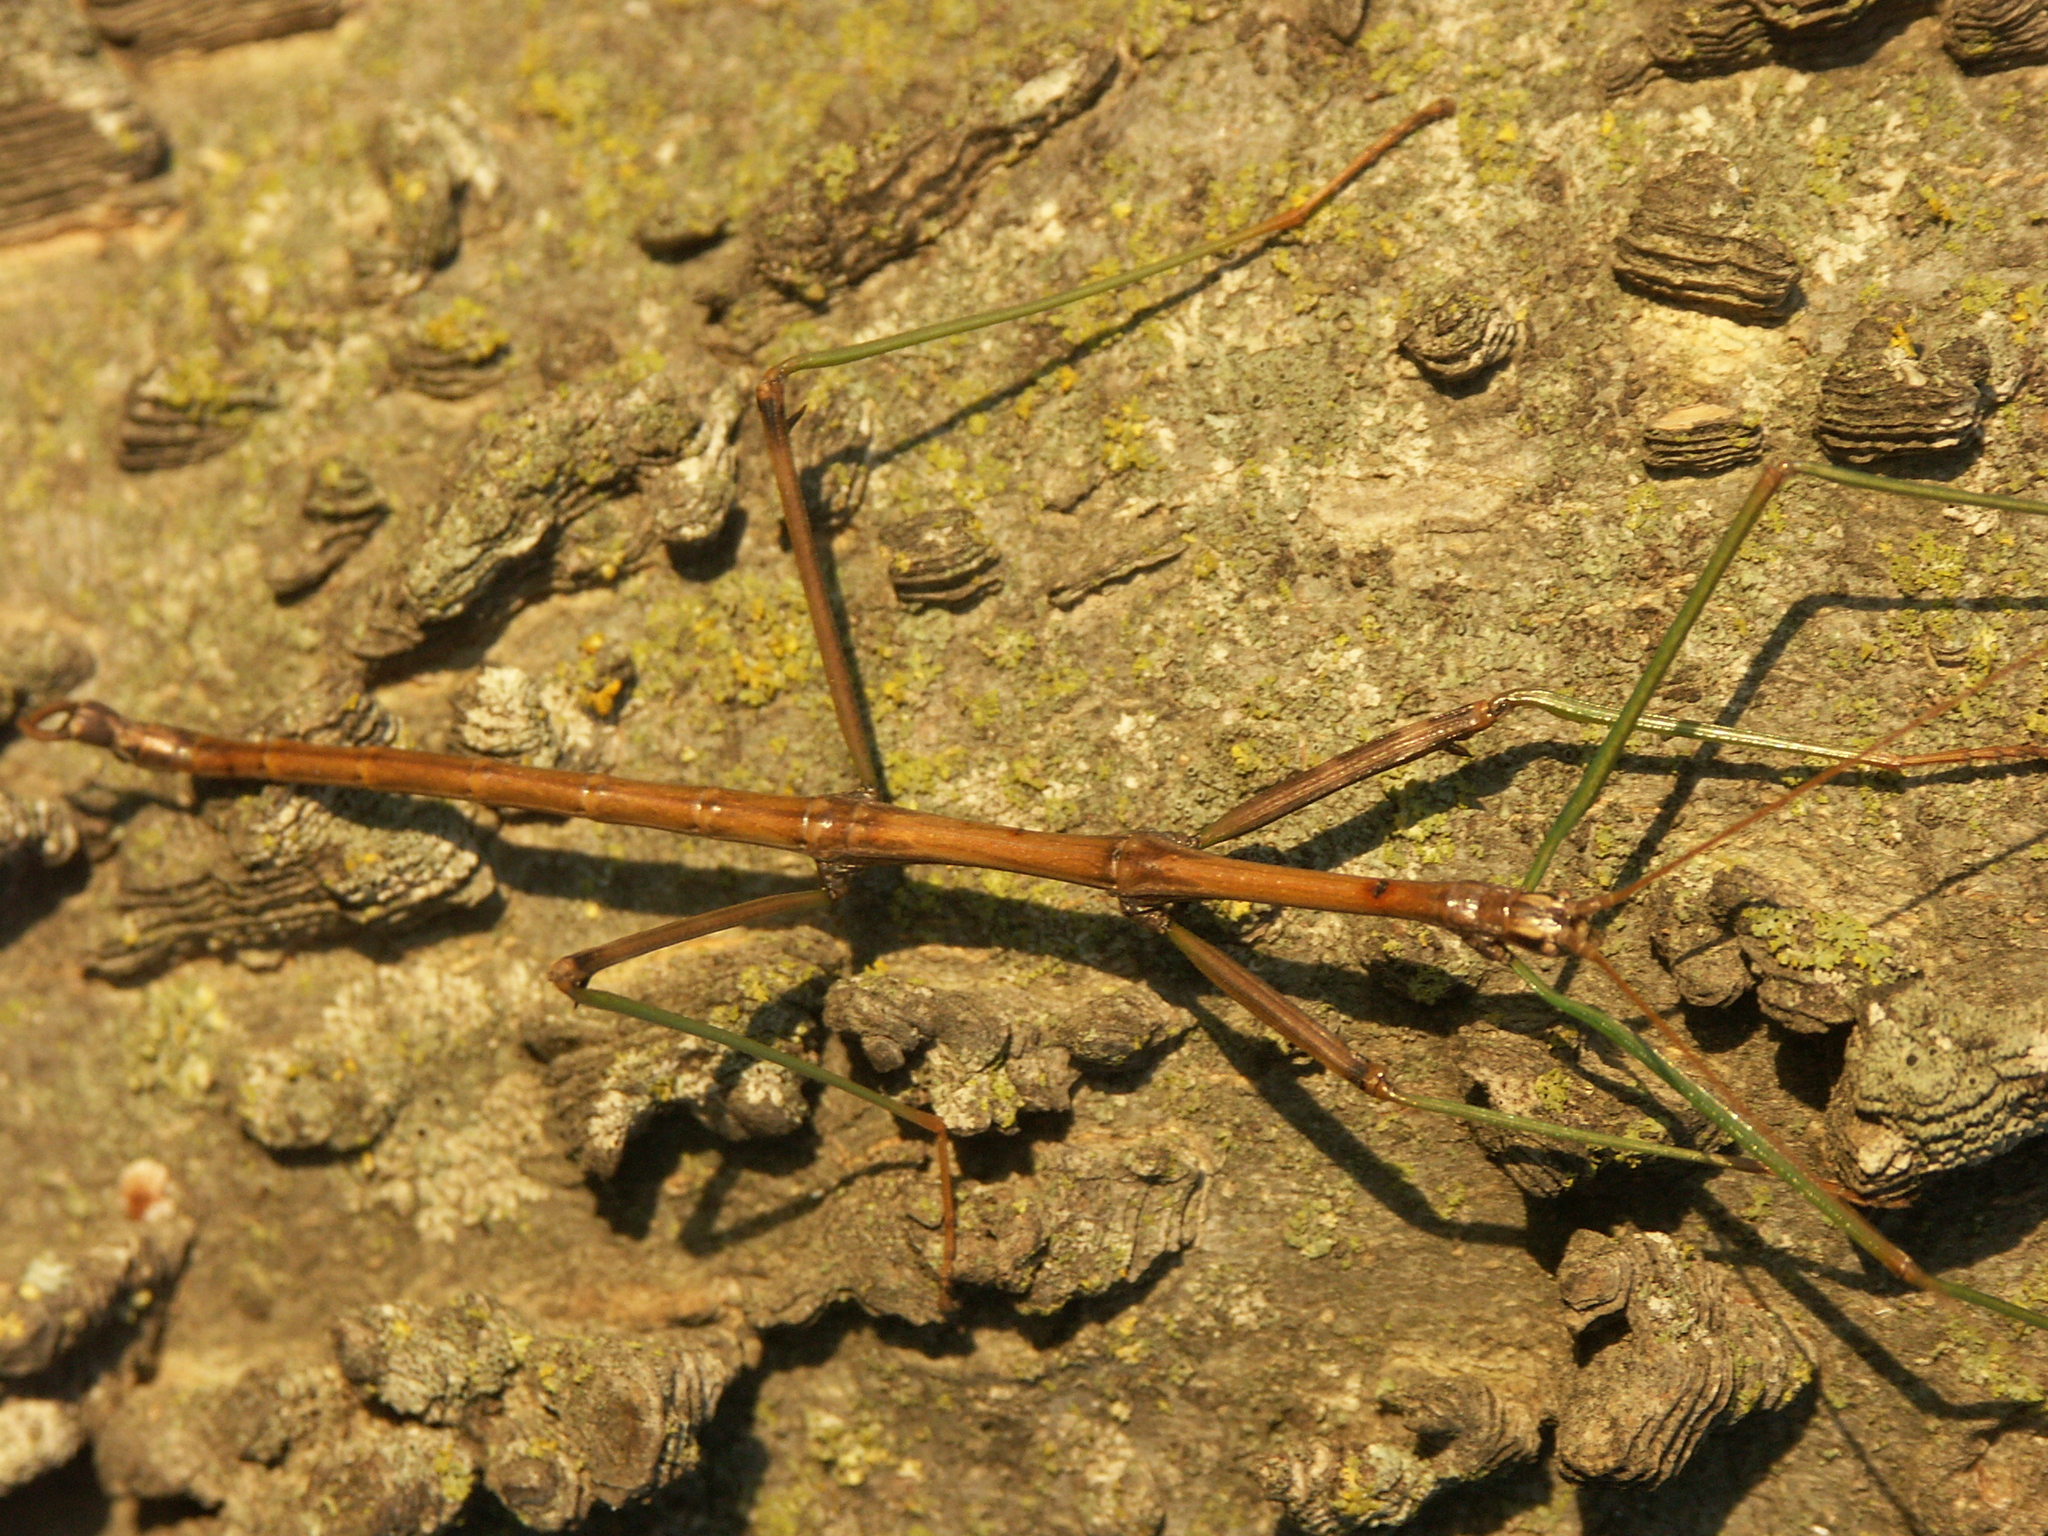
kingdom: Animalia
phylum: Arthropoda
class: Insecta
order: Phasmida
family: Diapheromeridae
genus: Diapheromera
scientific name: Diapheromera femorata
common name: Common american walkingstick
